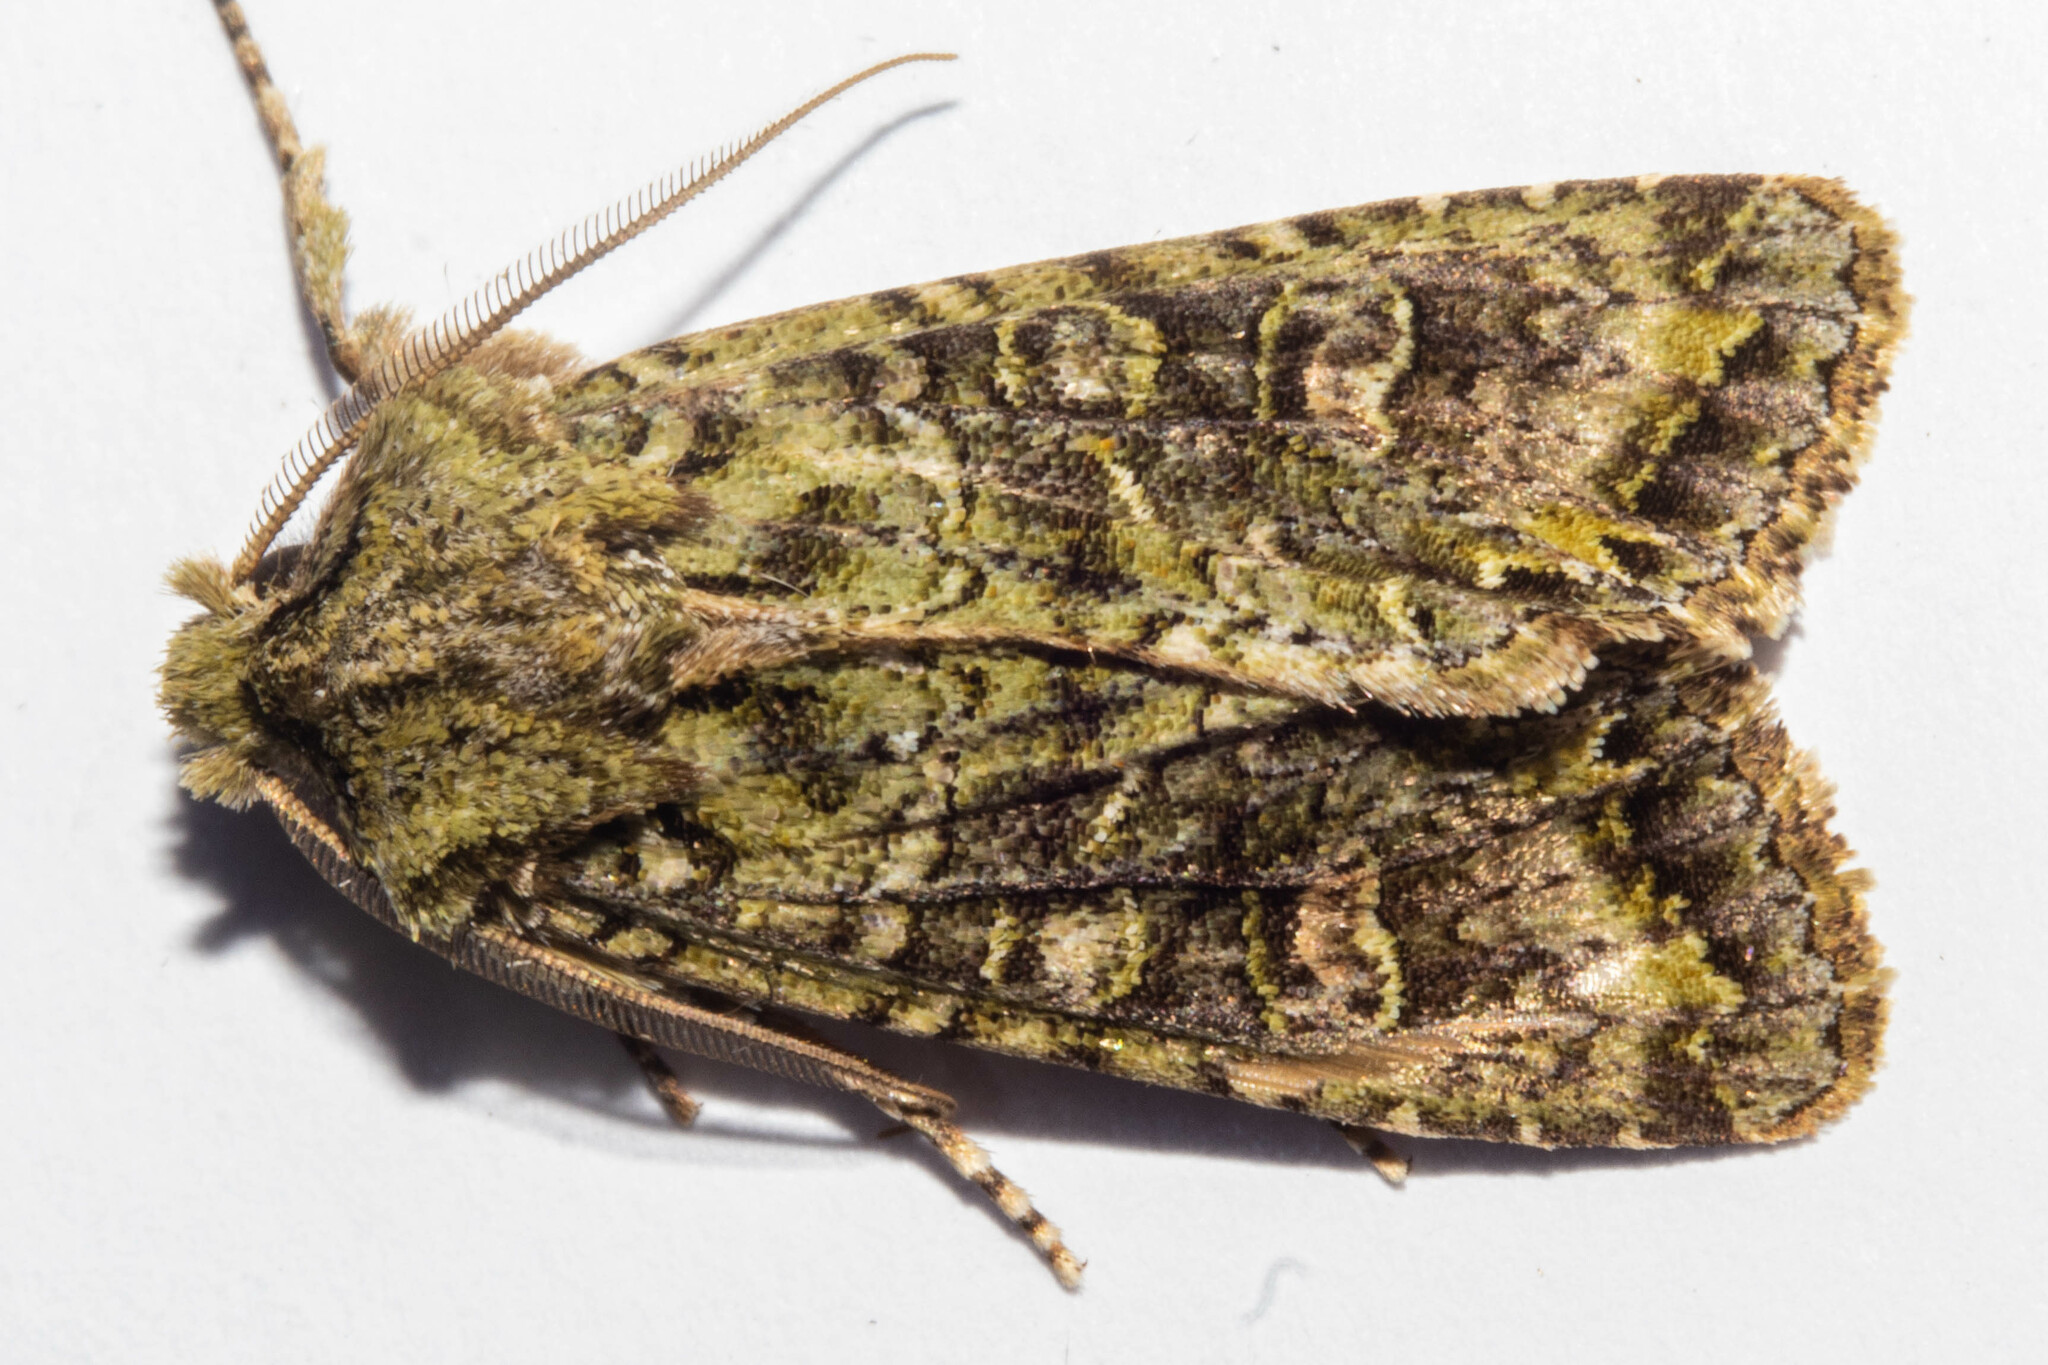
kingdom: Animalia
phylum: Arthropoda
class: Insecta
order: Lepidoptera
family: Noctuidae
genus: Ichneutica
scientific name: Ichneutica
